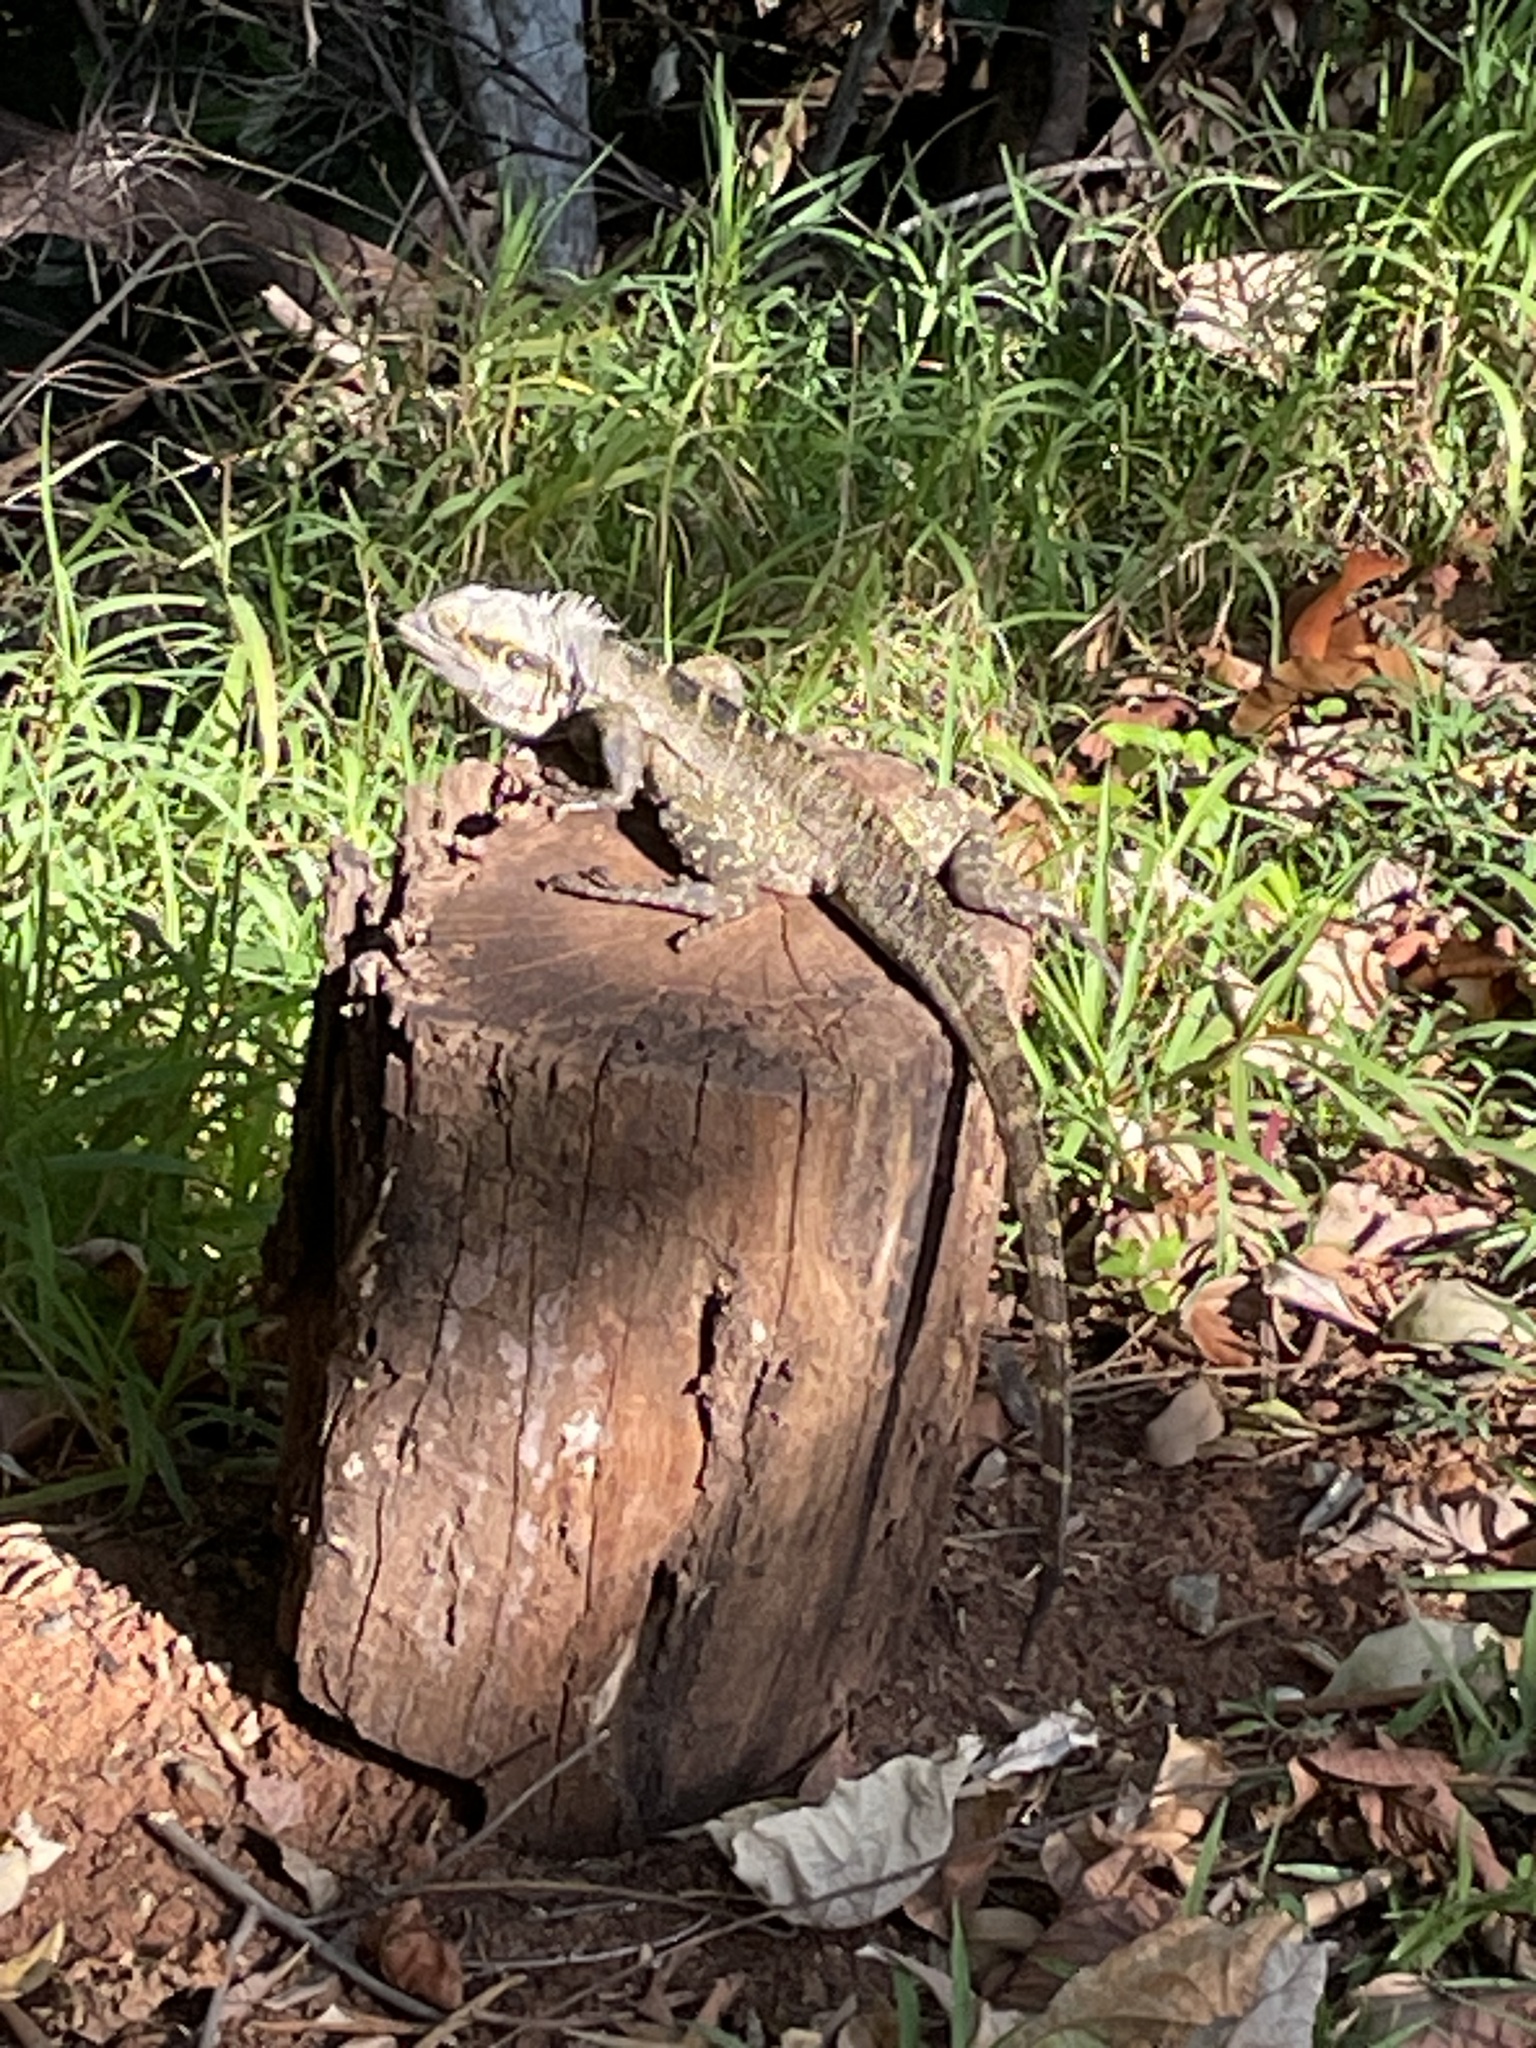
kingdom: Animalia
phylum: Chordata
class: Squamata
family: Agamidae
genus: Intellagama
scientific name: Intellagama lesueurii
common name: Eastern water dragon
